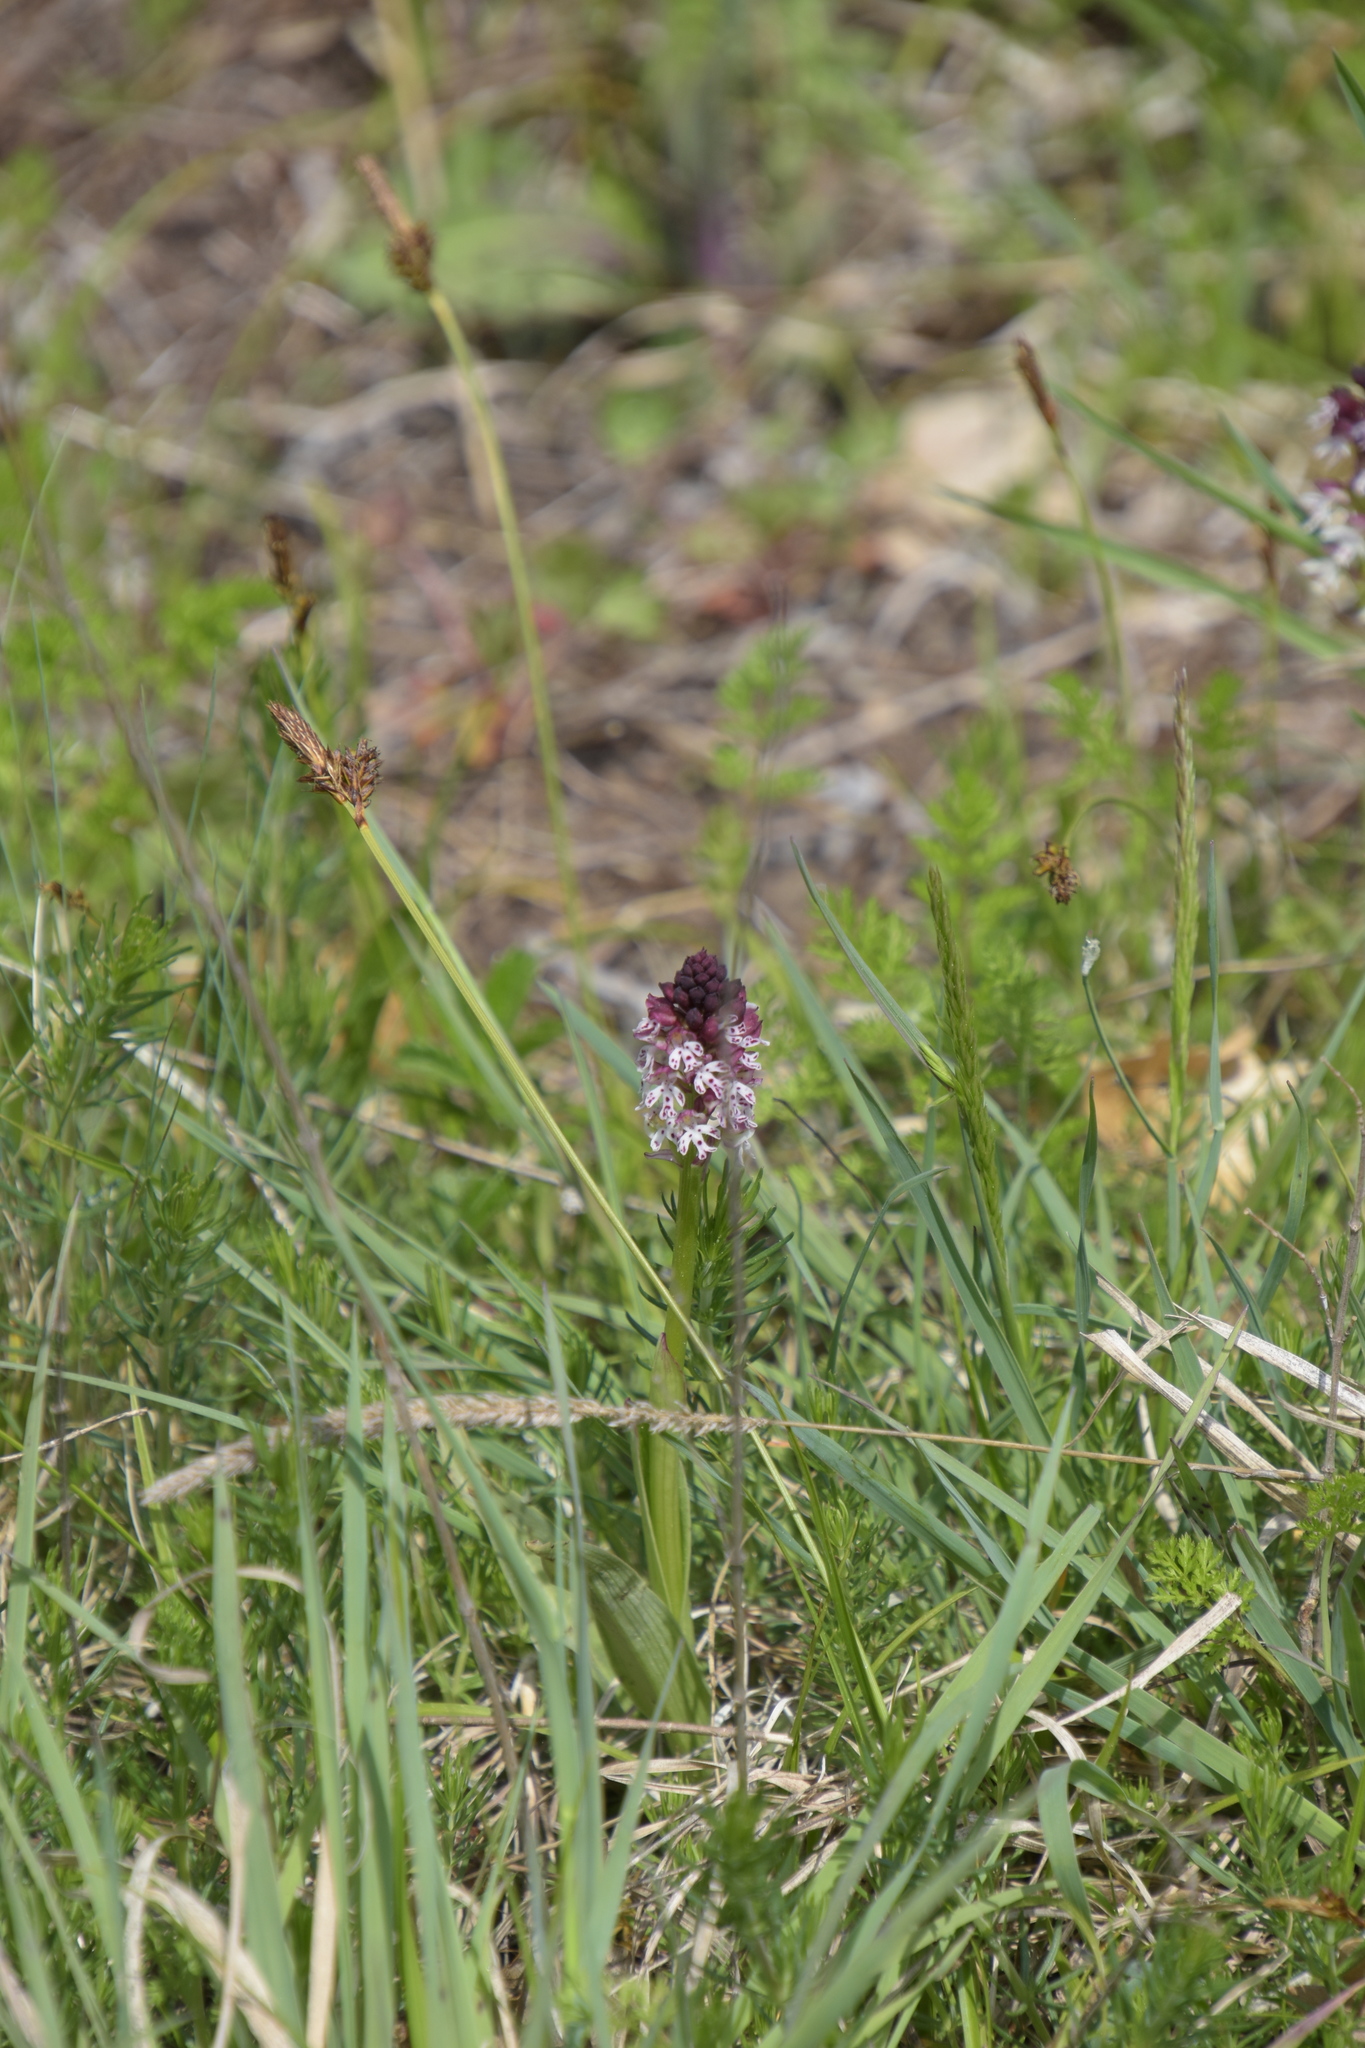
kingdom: Plantae
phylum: Tracheophyta
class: Liliopsida
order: Asparagales
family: Orchidaceae
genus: Neotinea
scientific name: Neotinea ustulata
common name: Burnt orchid
